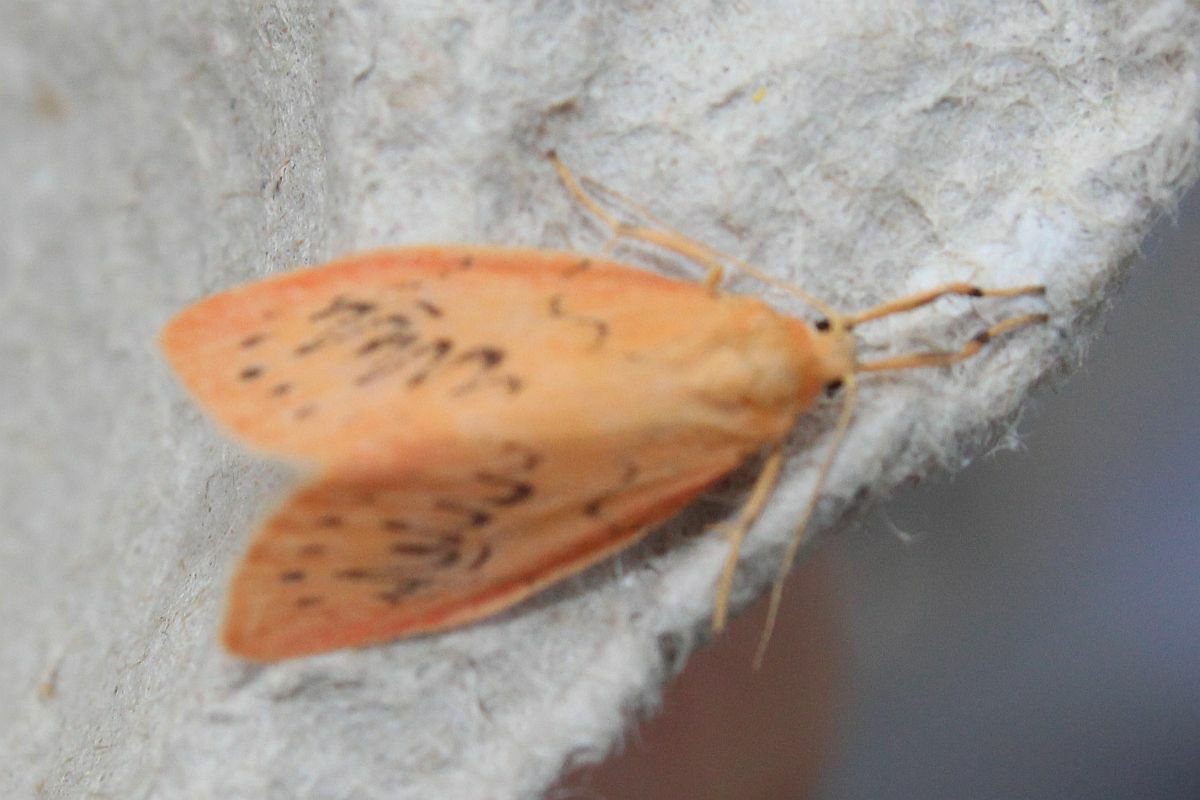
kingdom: Animalia
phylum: Arthropoda
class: Insecta
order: Lepidoptera
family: Erebidae
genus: Miltochrista
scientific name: Miltochrista miniata
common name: Rosy footman
